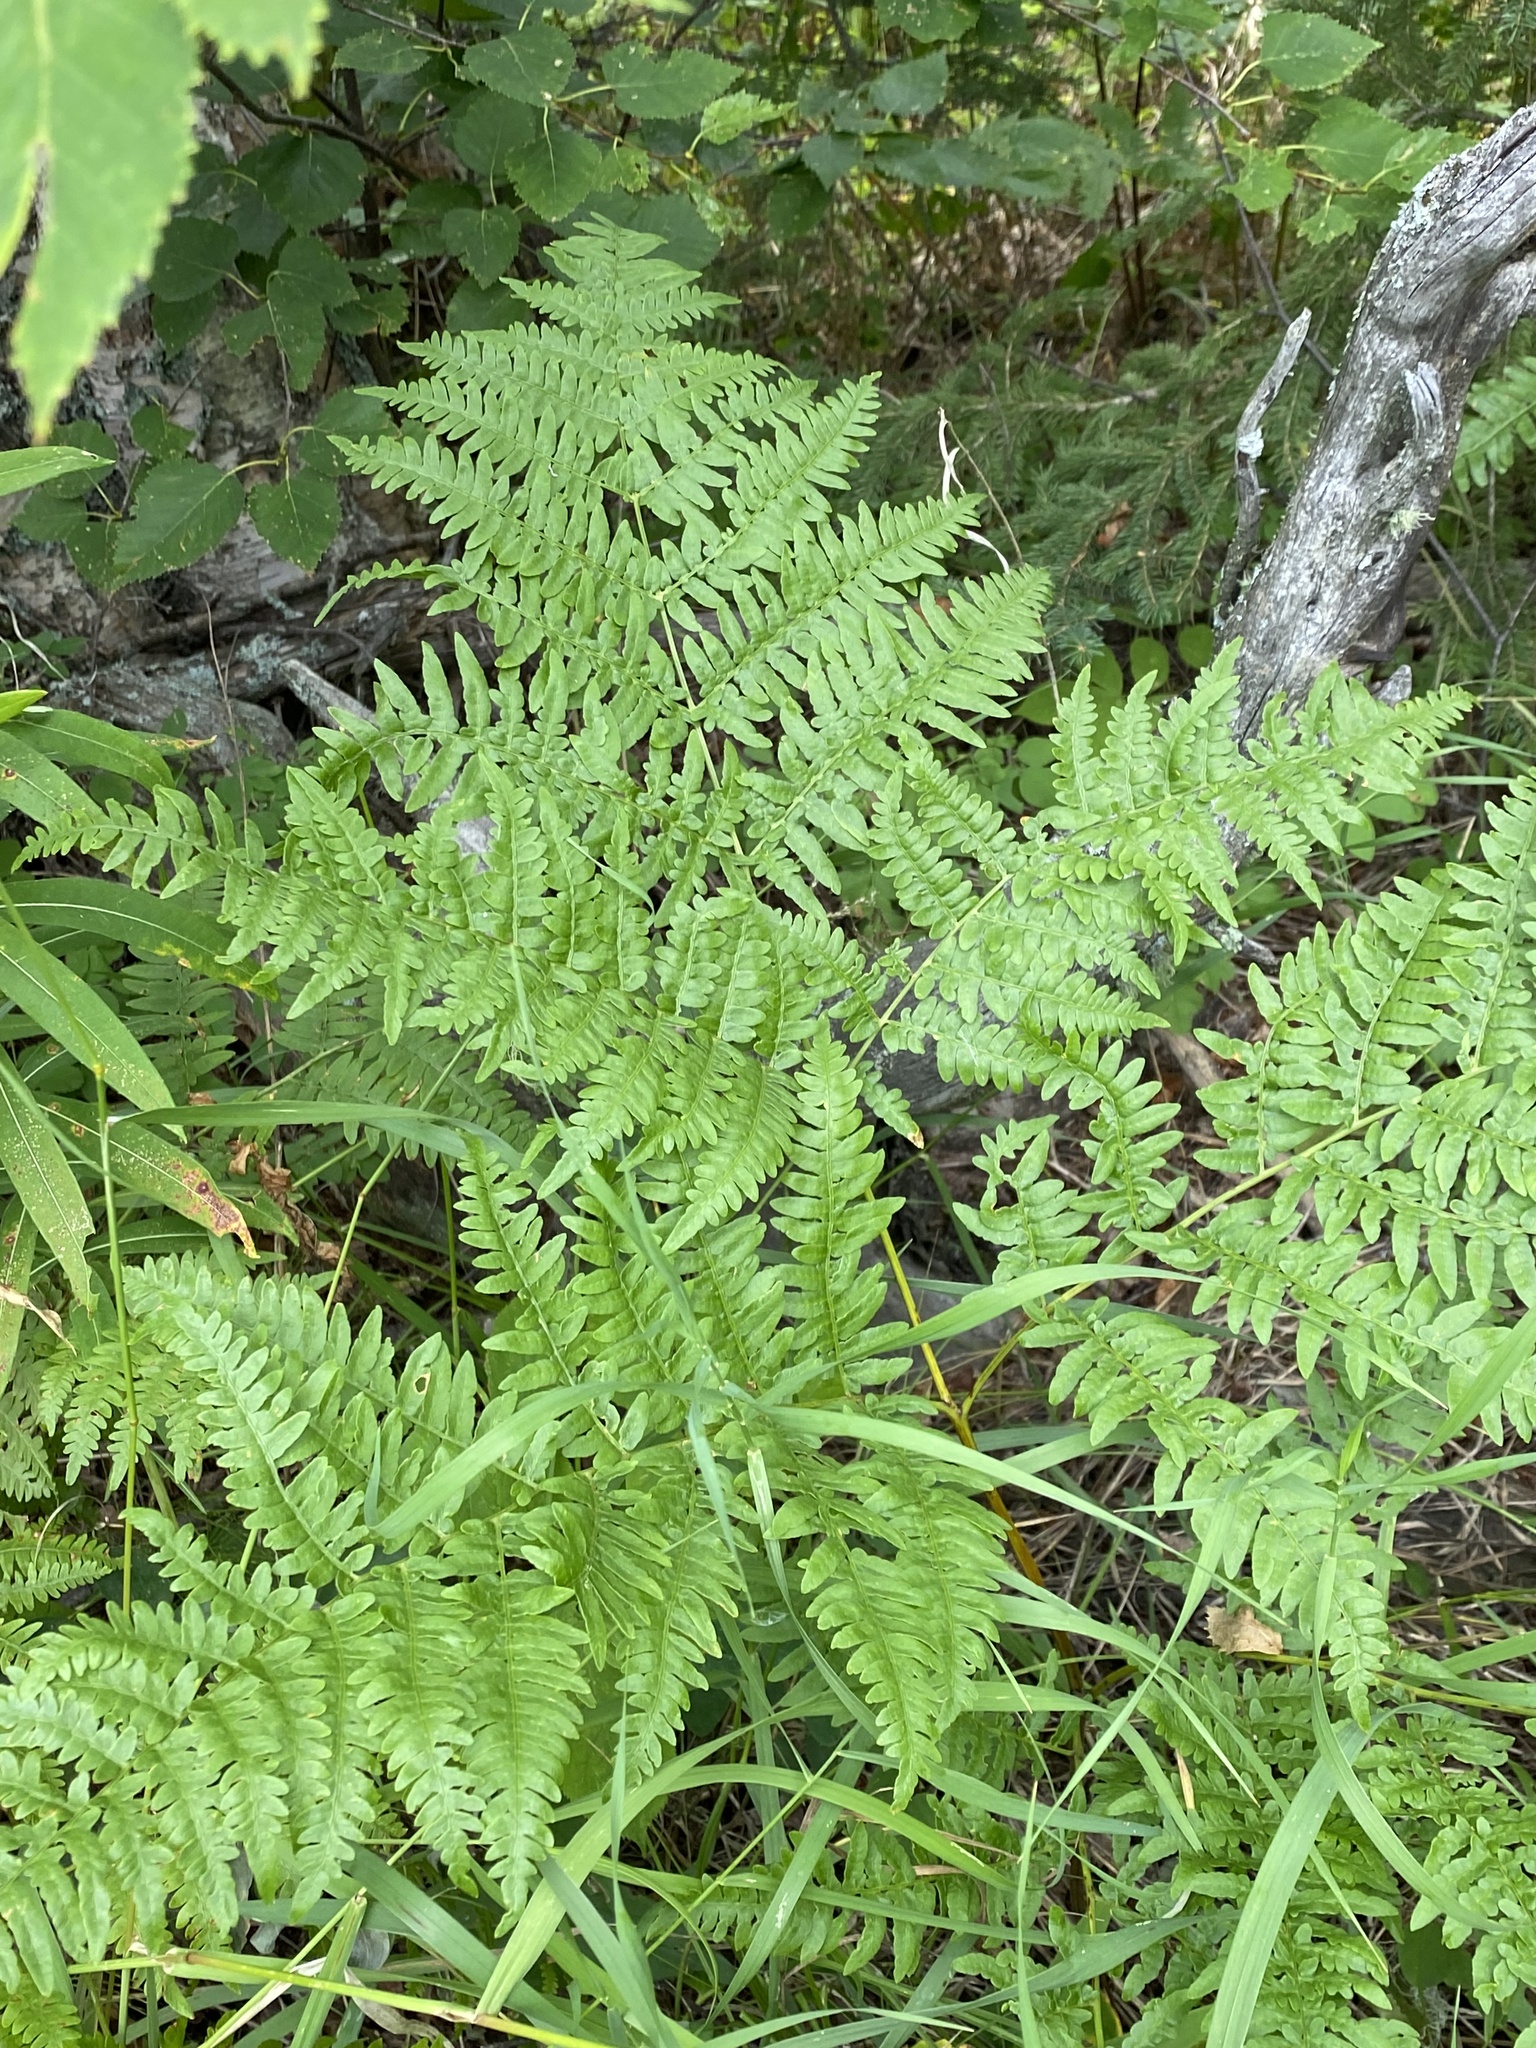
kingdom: Plantae
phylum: Tracheophyta
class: Polypodiopsida
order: Polypodiales
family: Dennstaedtiaceae
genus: Pteridium
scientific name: Pteridium aquilinum
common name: Bracken
